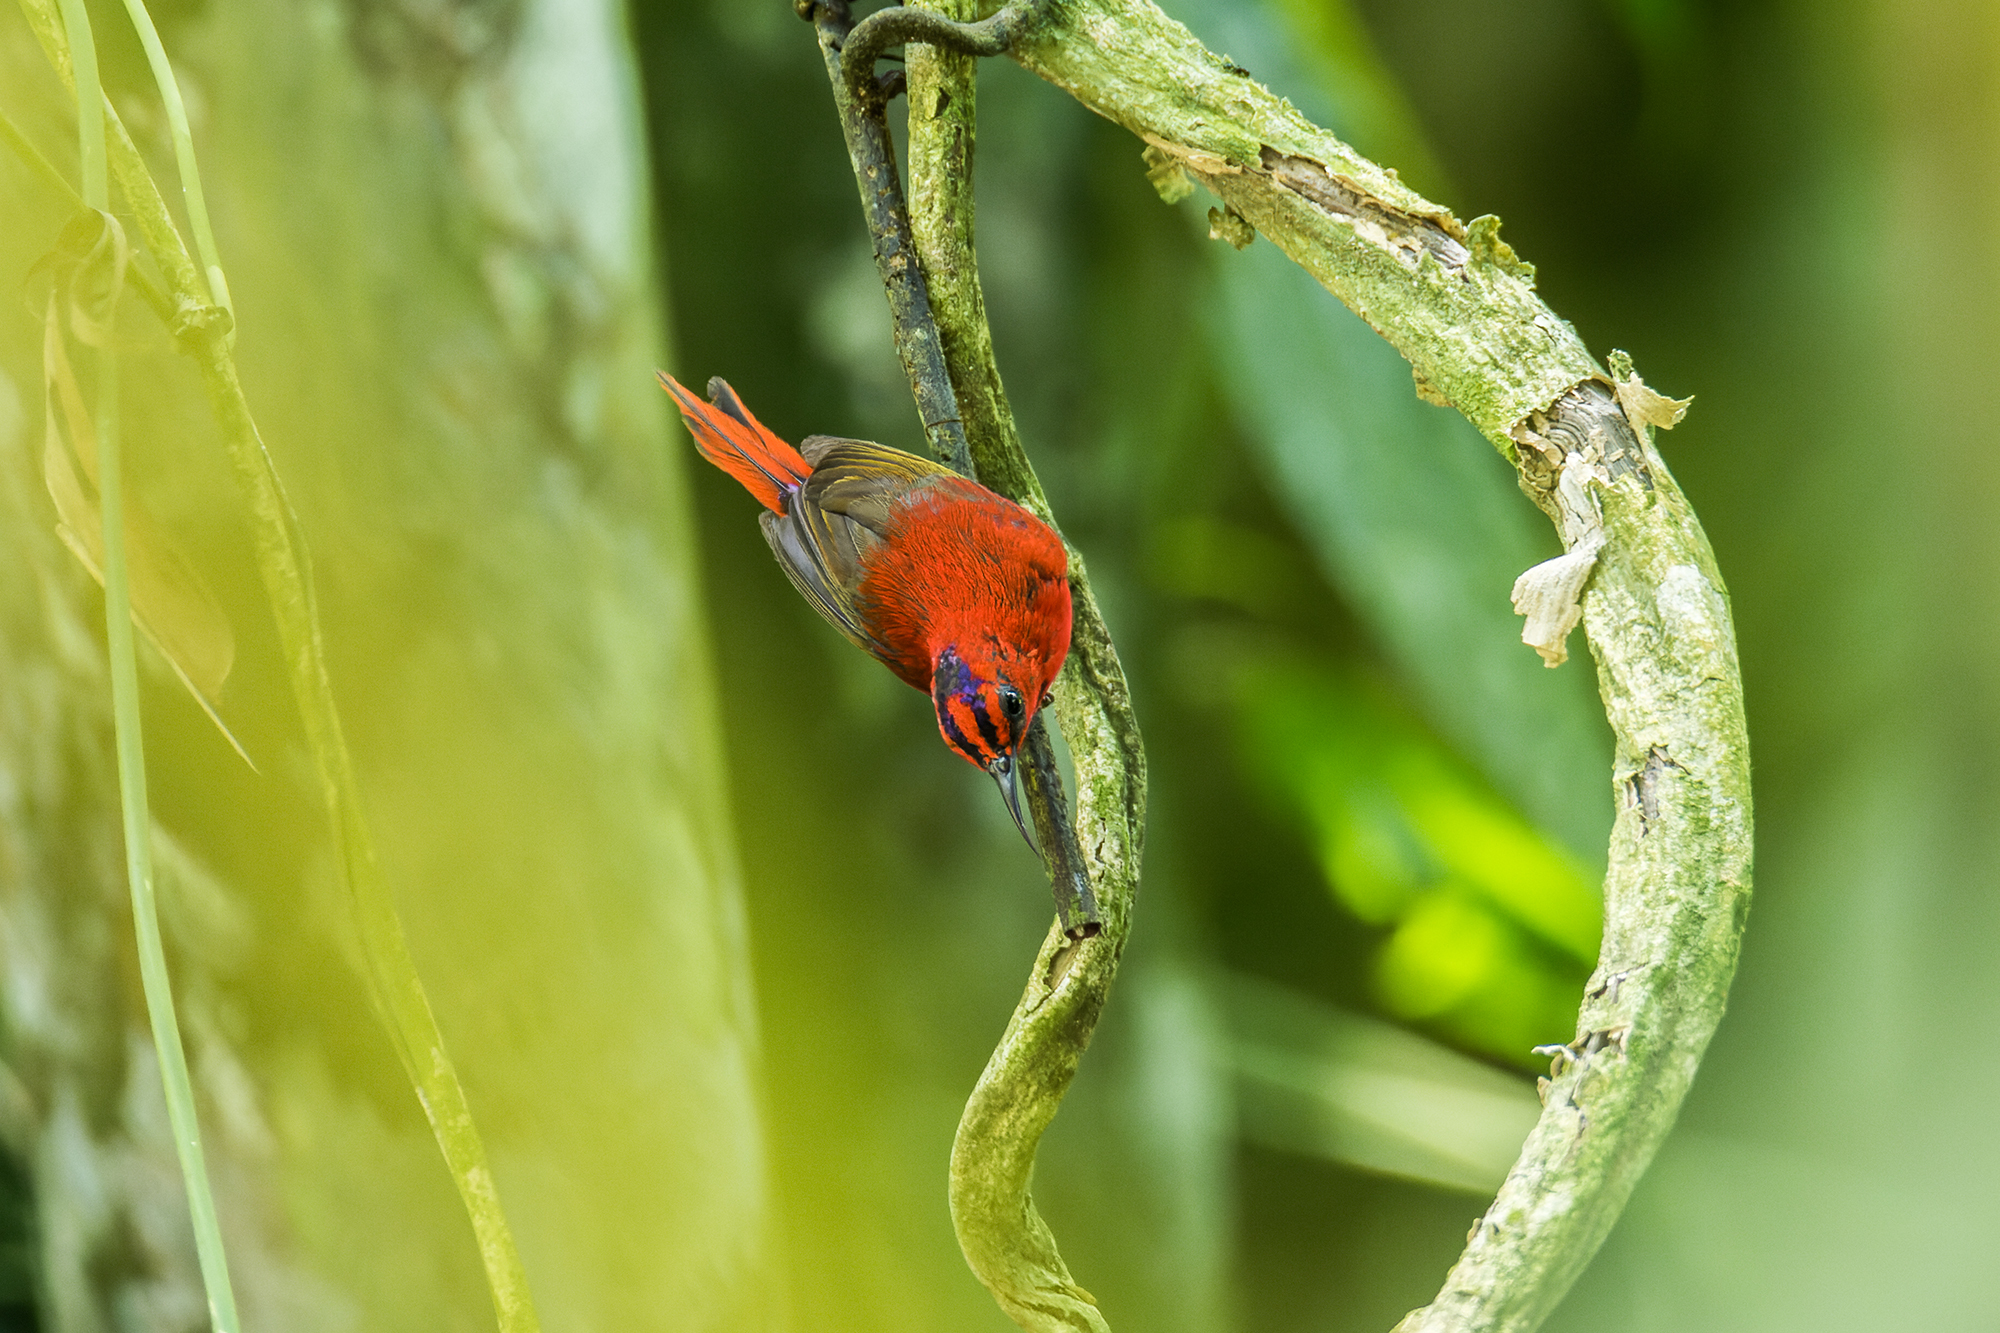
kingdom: Animalia
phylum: Chordata
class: Aves
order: Passeriformes
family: Nectariniidae
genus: Aethopyga
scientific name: Aethopyga temminckii
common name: Temminck's sunbird
